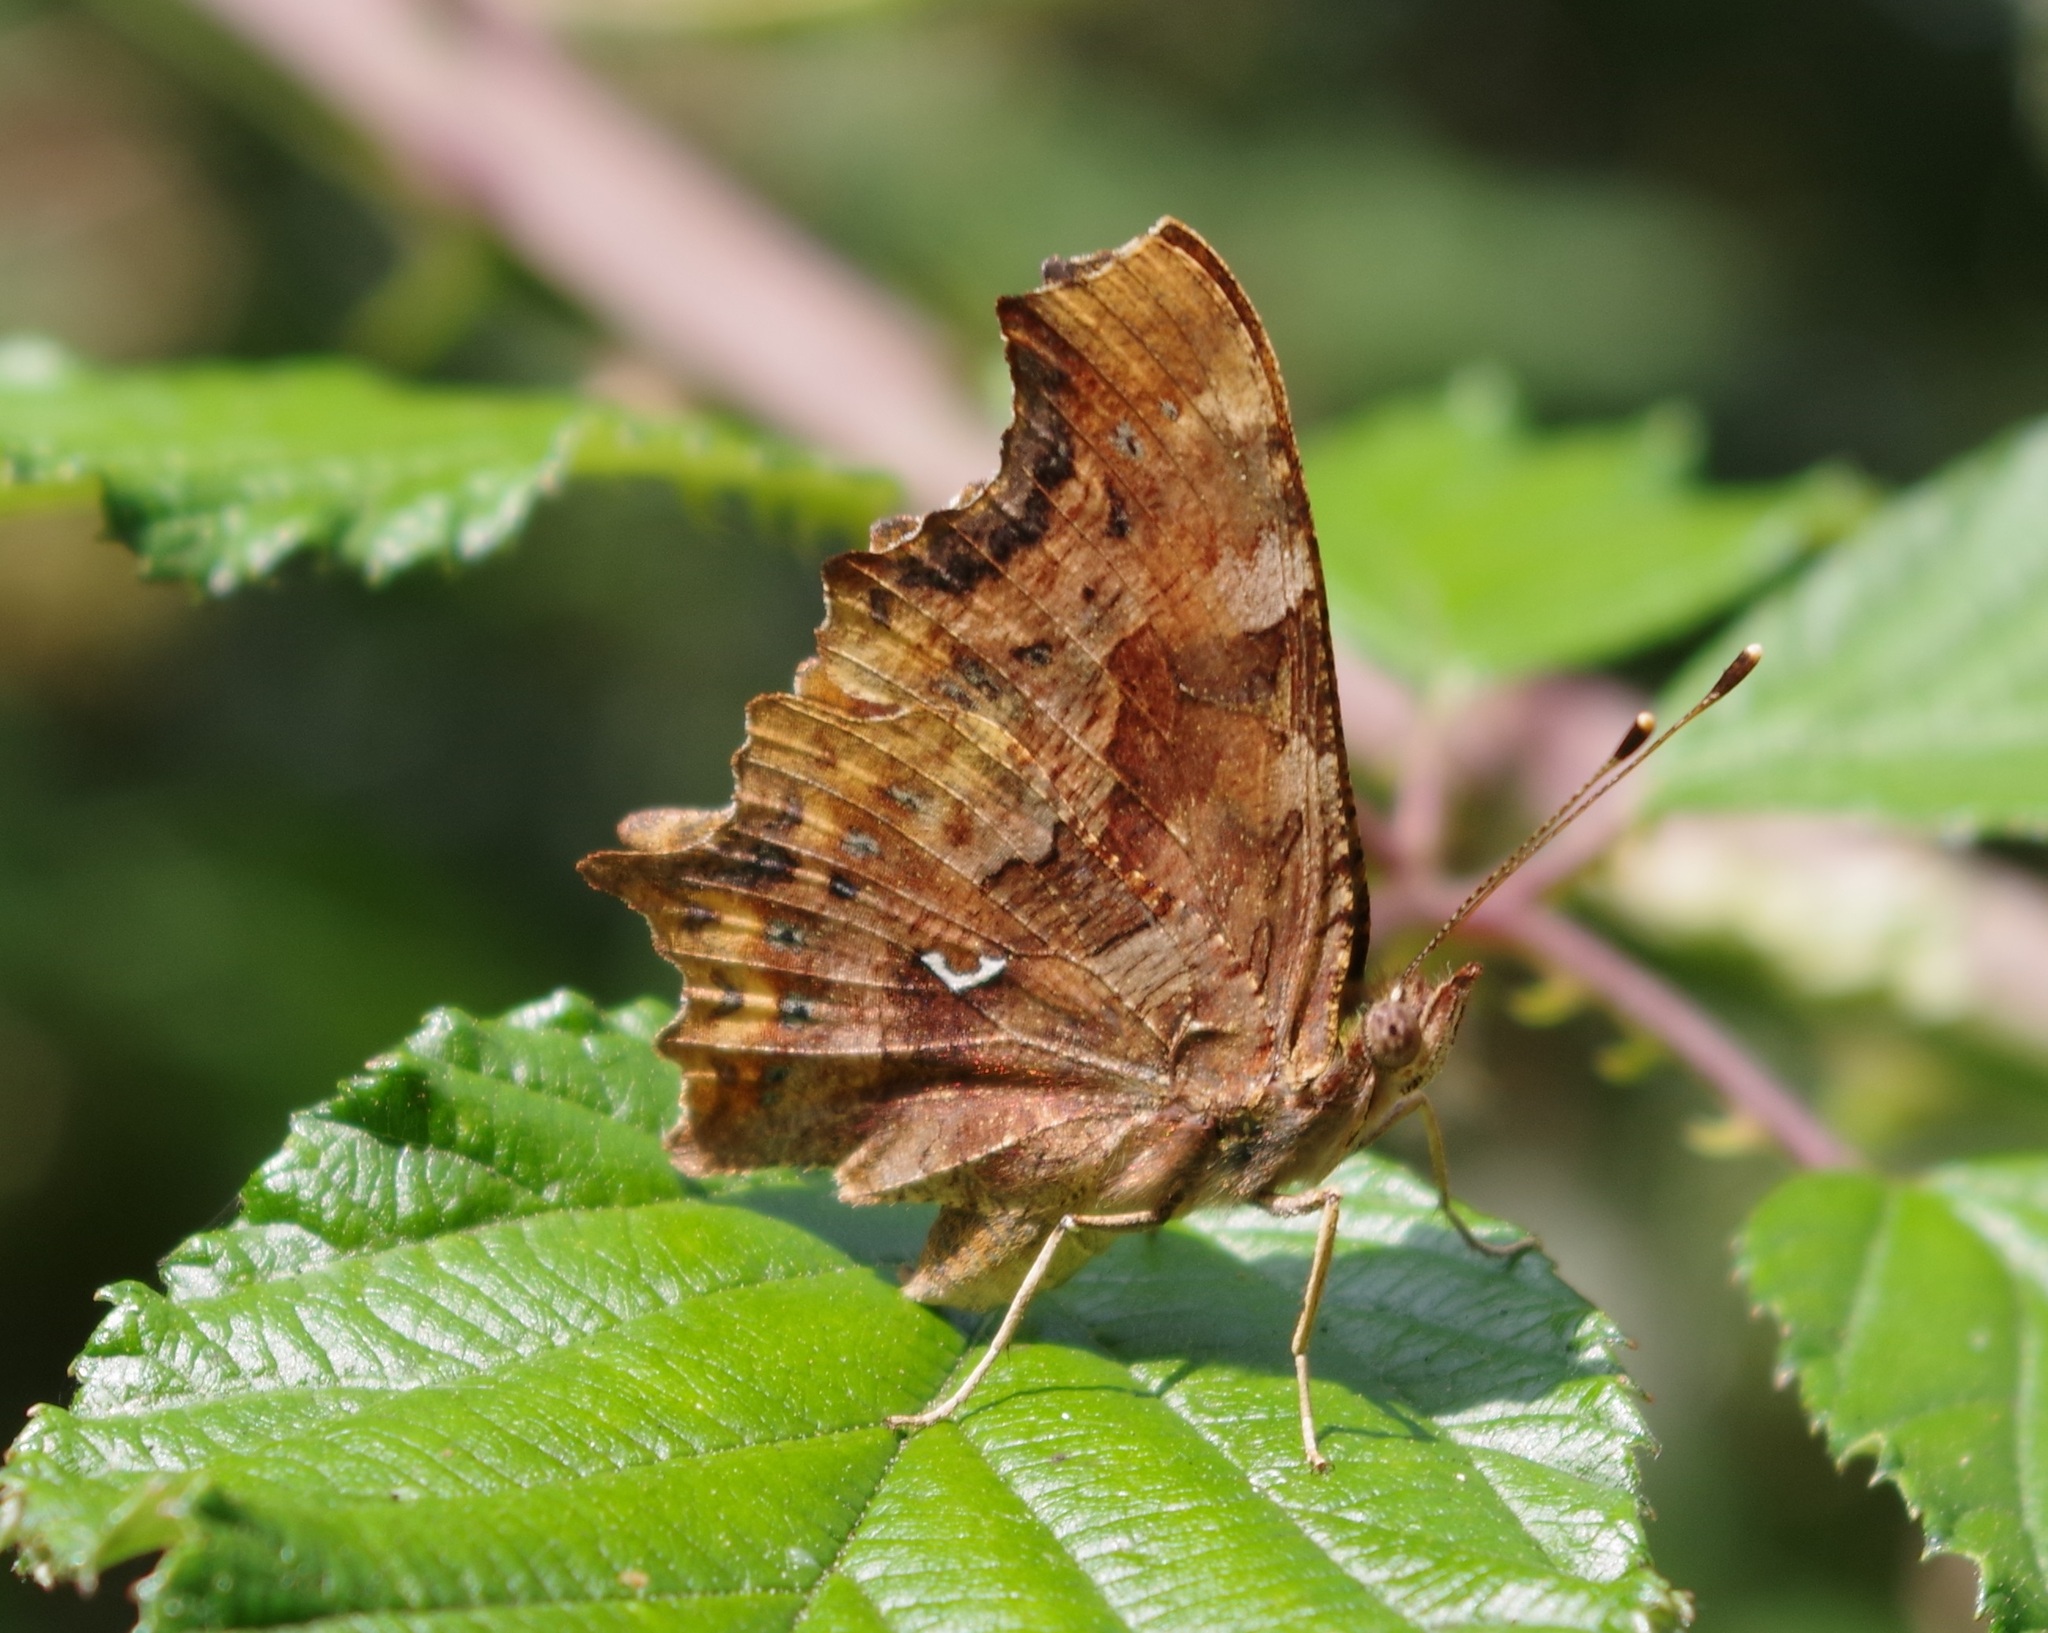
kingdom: Animalia
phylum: Arthropoda
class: Insecta
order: Lepidoptera
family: Nymphalidae
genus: Polygonia
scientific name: Polygonia c-album
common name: Comma
